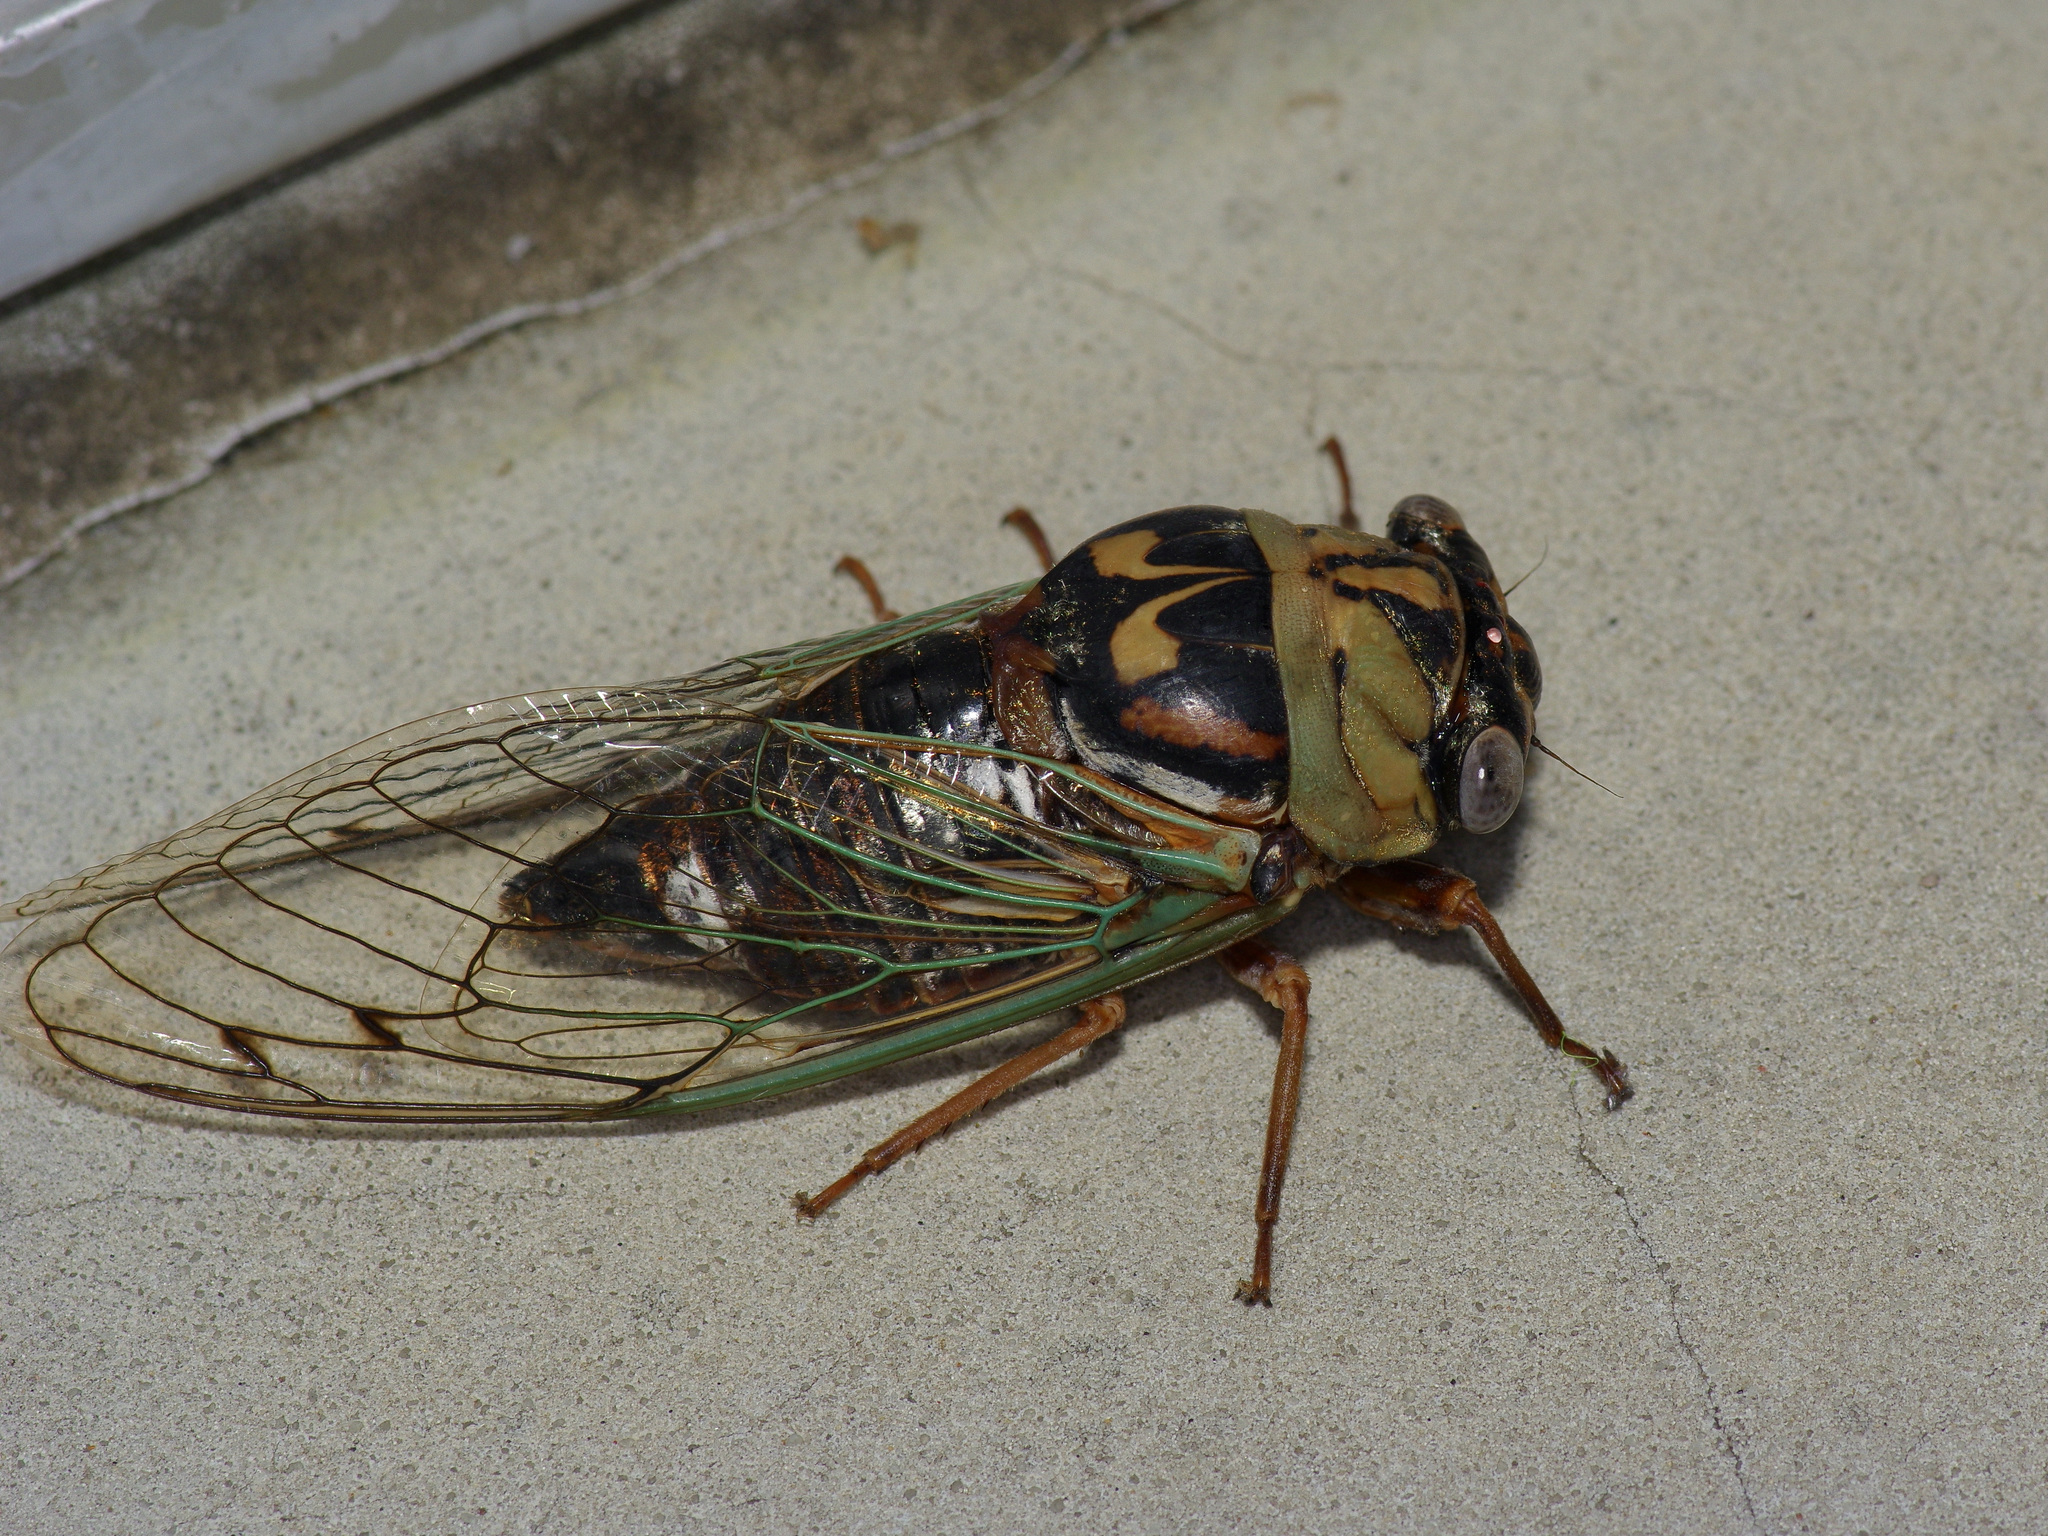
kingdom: Animalia
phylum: Arthropoda
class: Insecta
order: Hemiptera
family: Cicadidae
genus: Megatibicen
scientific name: Megatibicen resh
